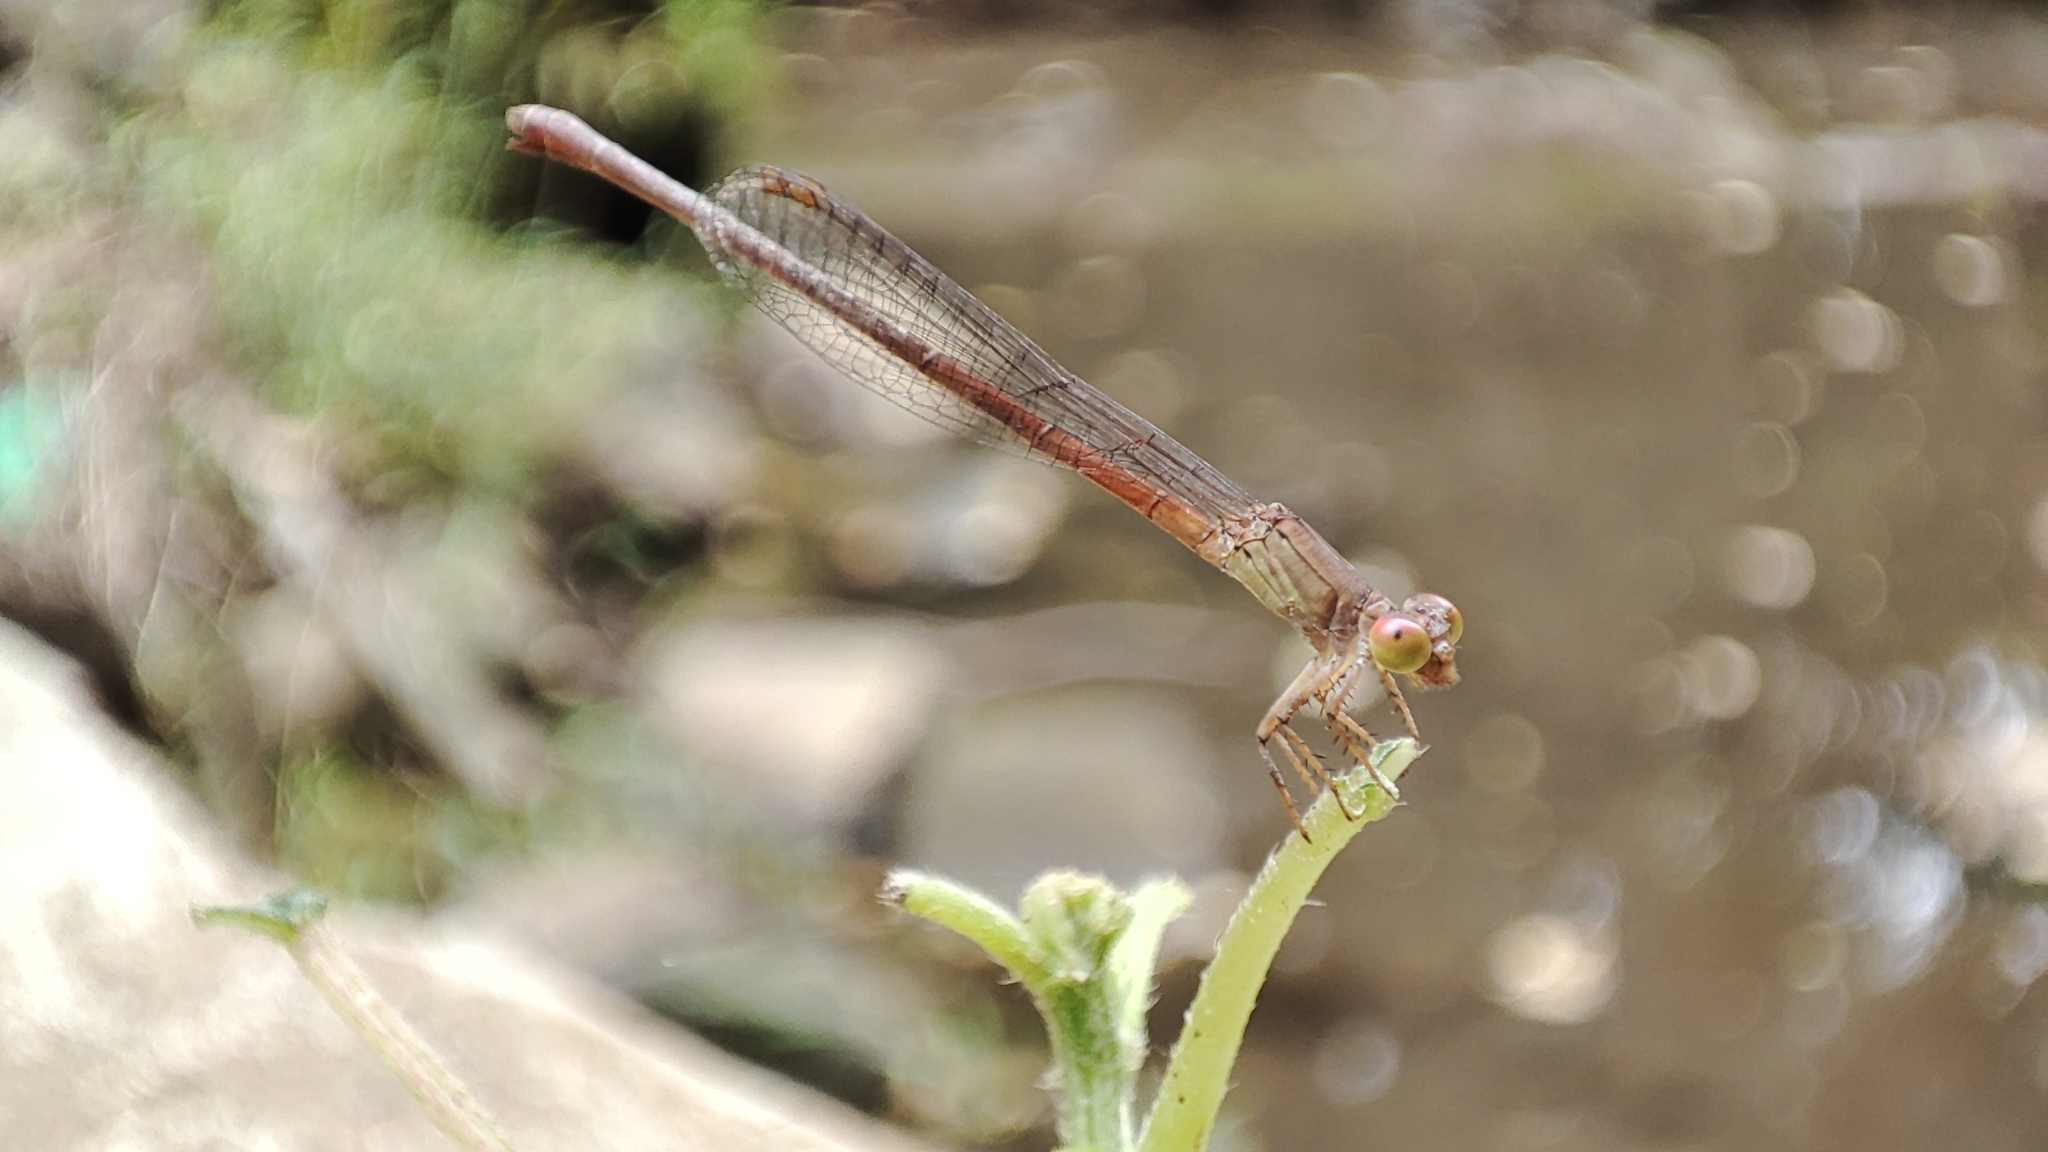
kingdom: Animalia
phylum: Arthropoda
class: Insecta
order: Odonata
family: Coenagrionidae
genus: Ceriagrion
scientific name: Ceriagrion praetermissum
